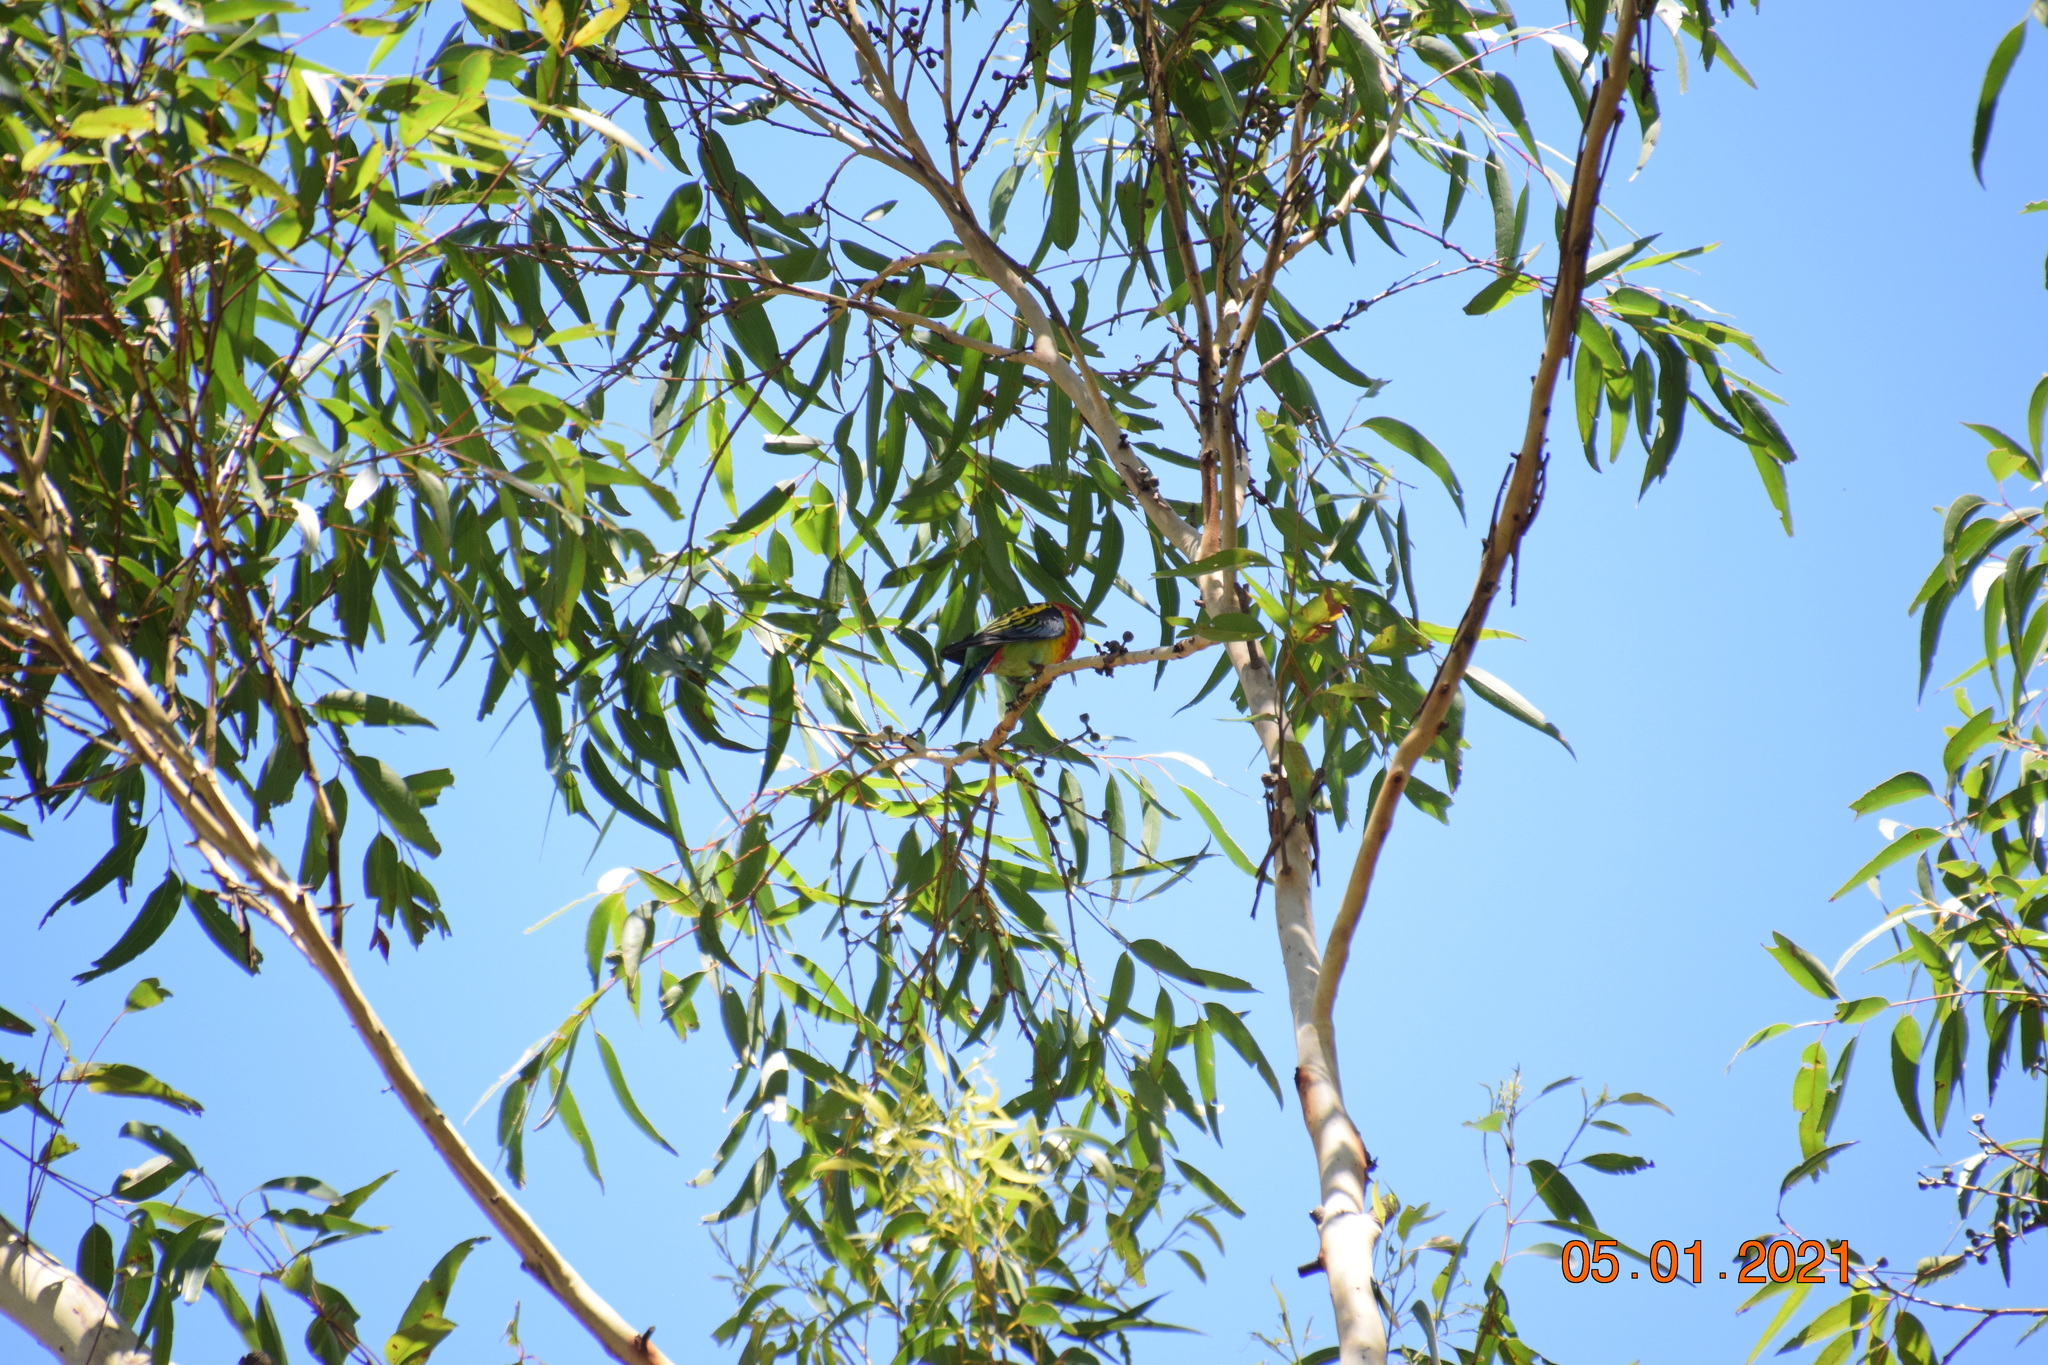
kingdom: Animalia
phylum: Chordata
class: Aves
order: Psittaciformes
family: Psittacidae
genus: Platycercus
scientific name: Platycercus eximius
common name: Eastern rosella
